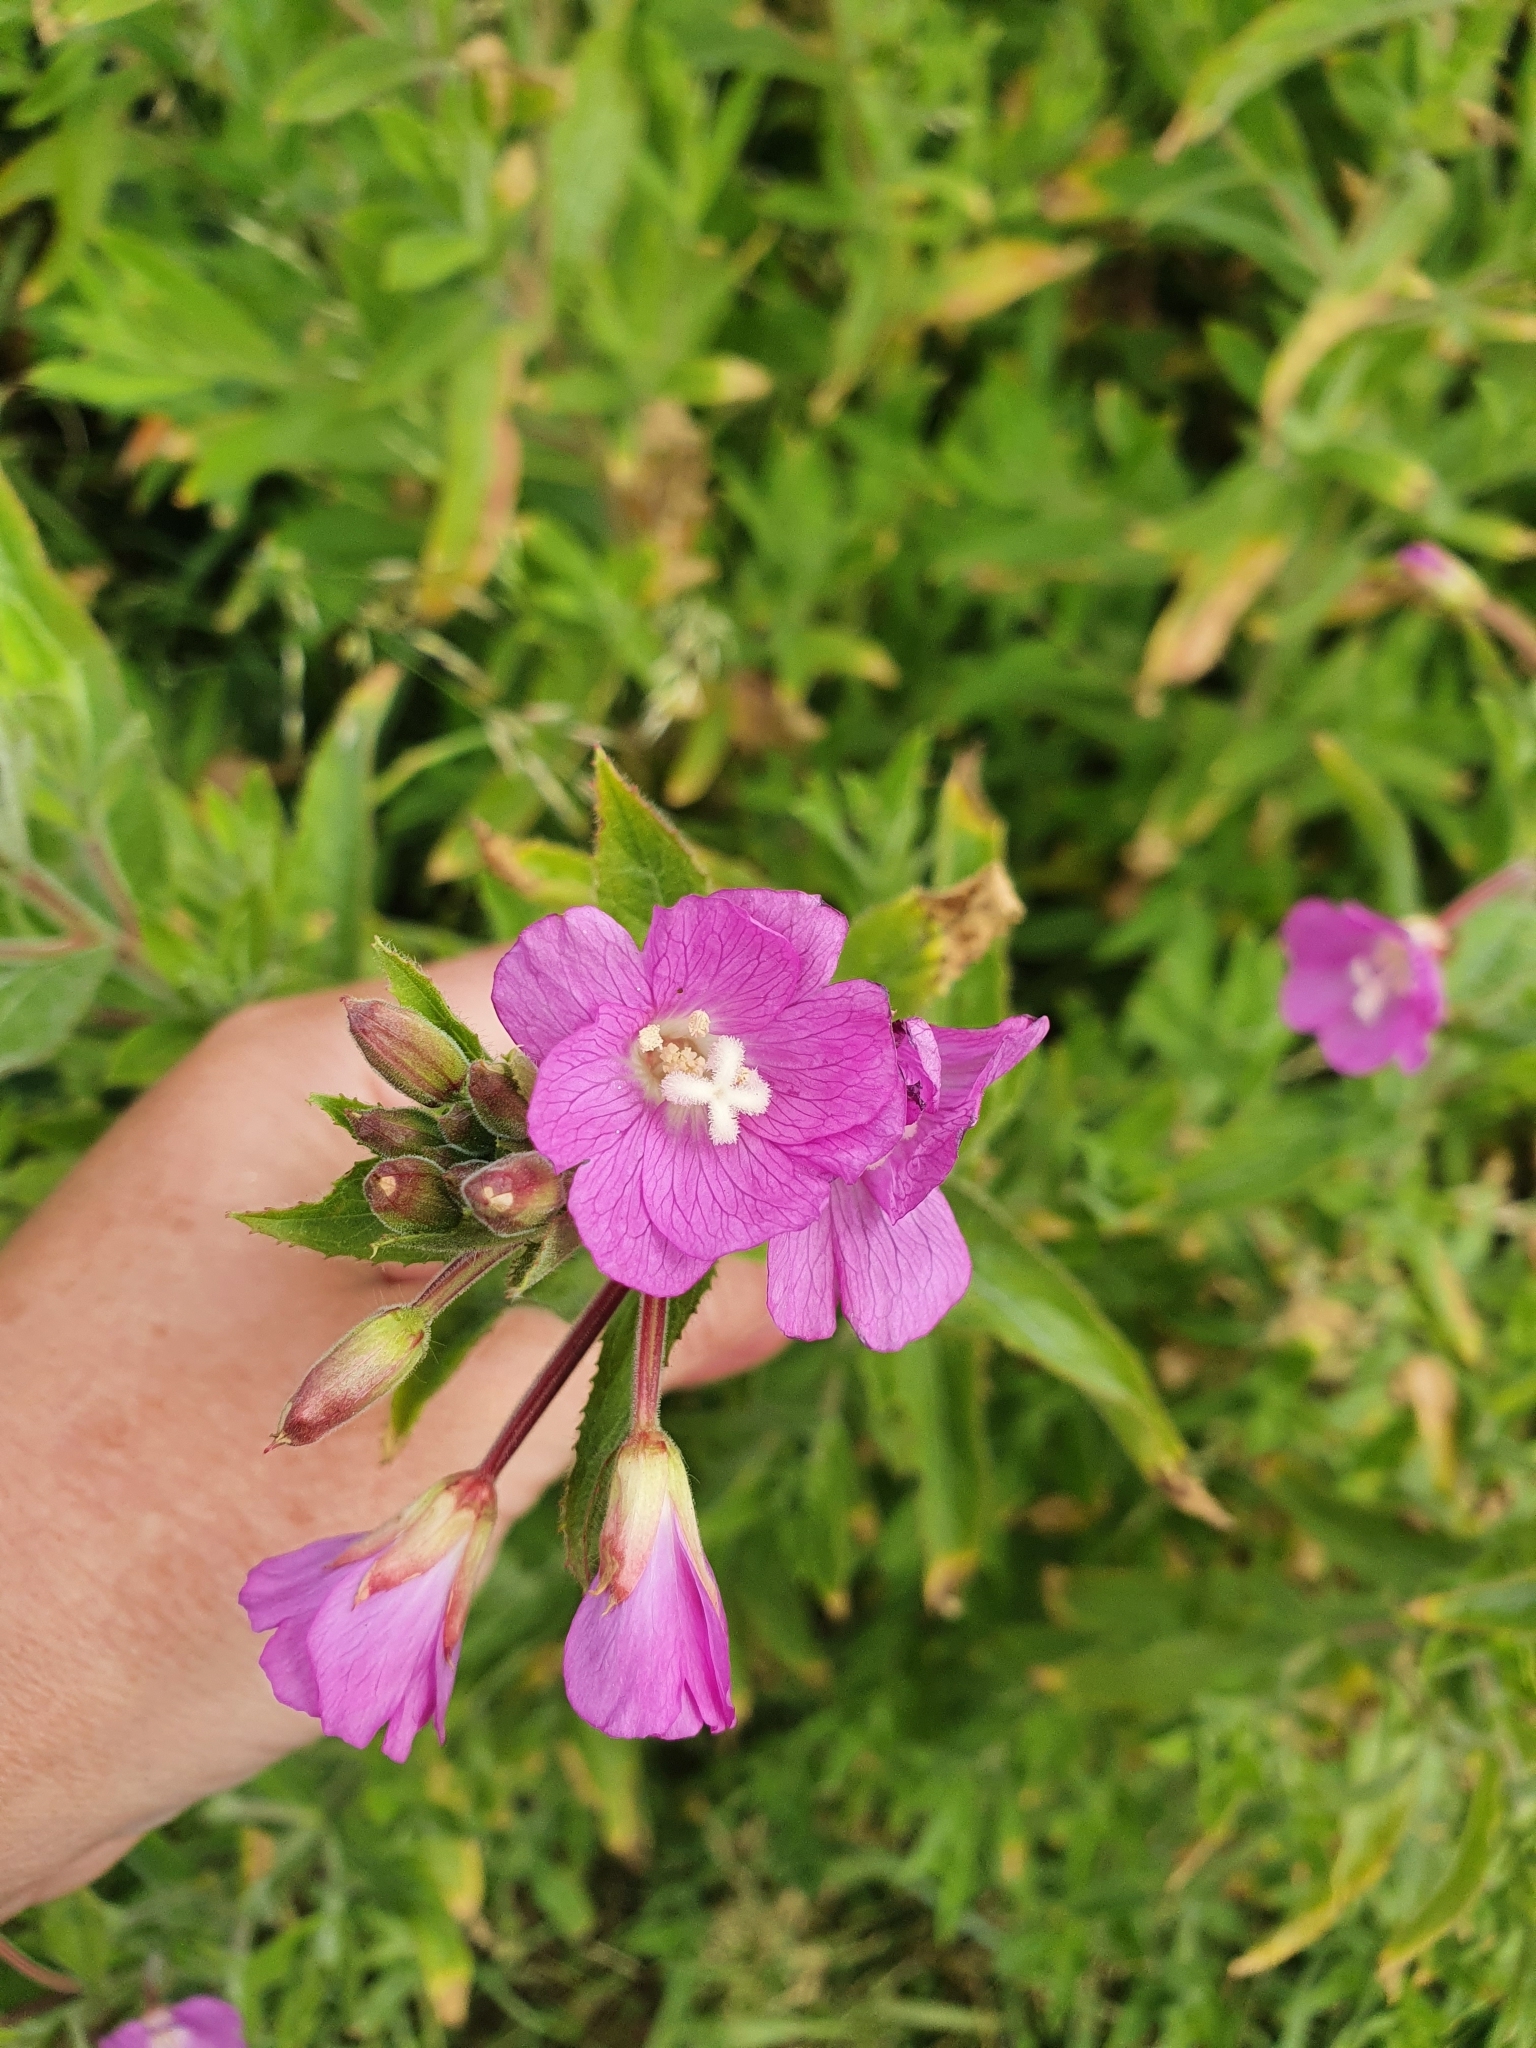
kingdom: Plantae
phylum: Tracheophyta
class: Magnoliopsida
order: Myrtales
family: Onagraceae
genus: Epilobium
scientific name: Epilobium hirsutum
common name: Great willowherb
